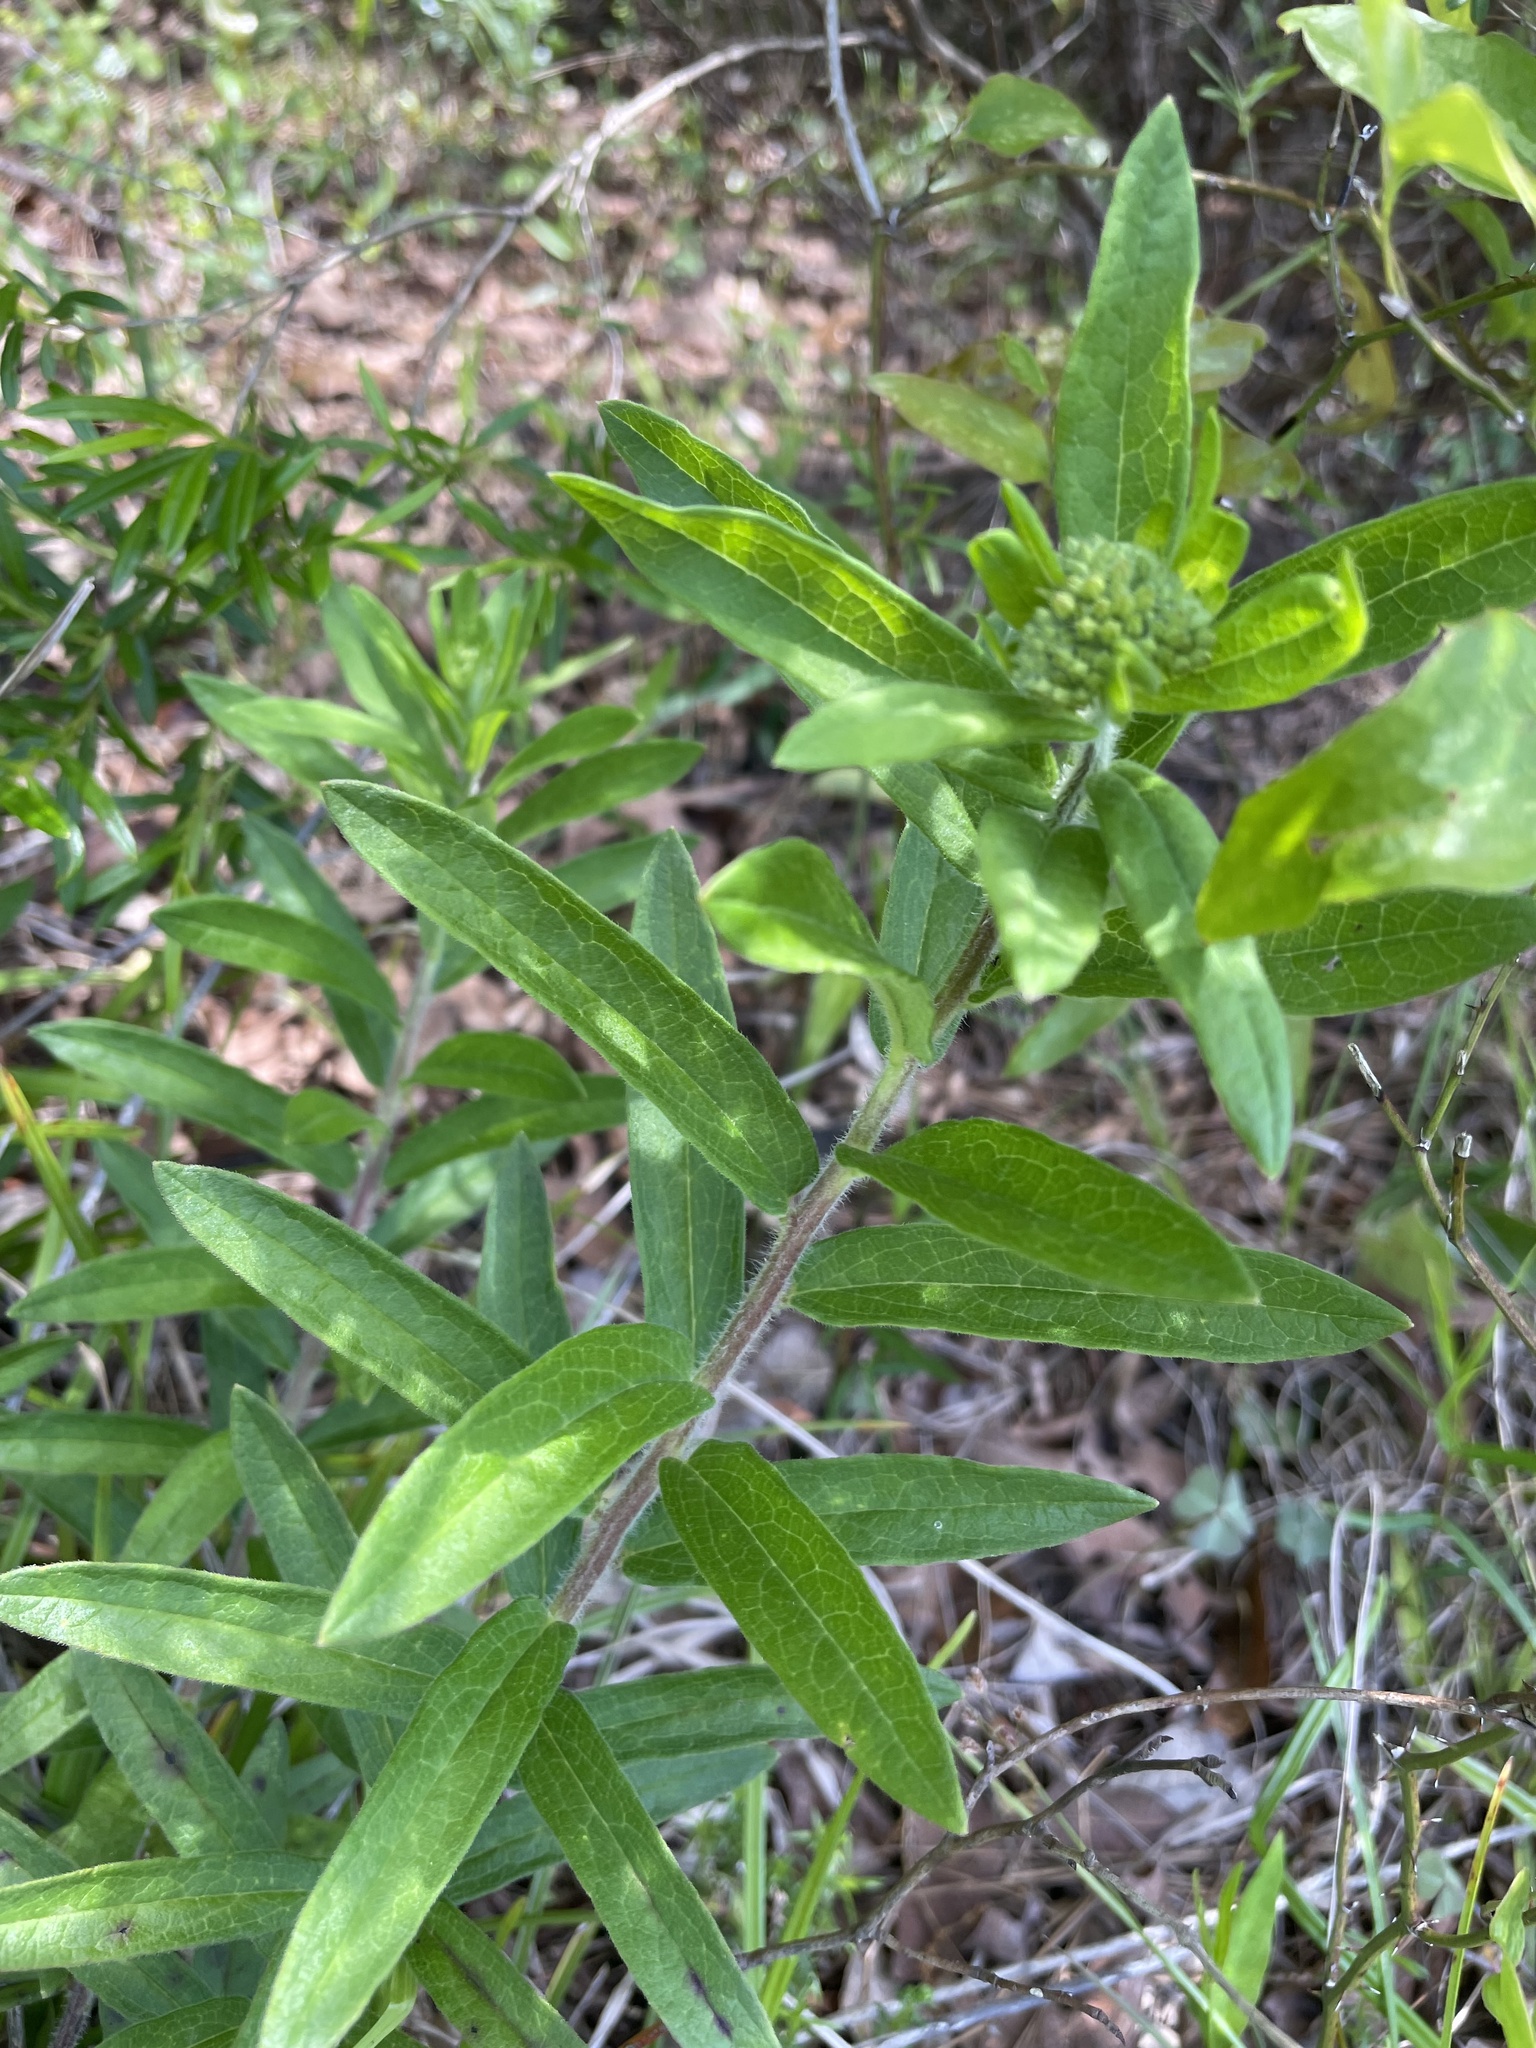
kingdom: Plantae
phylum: Tracheophyta
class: Magnoliopsida
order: Gentianales
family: Apocynaceae
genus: Asclepias
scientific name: Asclepias tuberosa
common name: Butterfly milkweed
